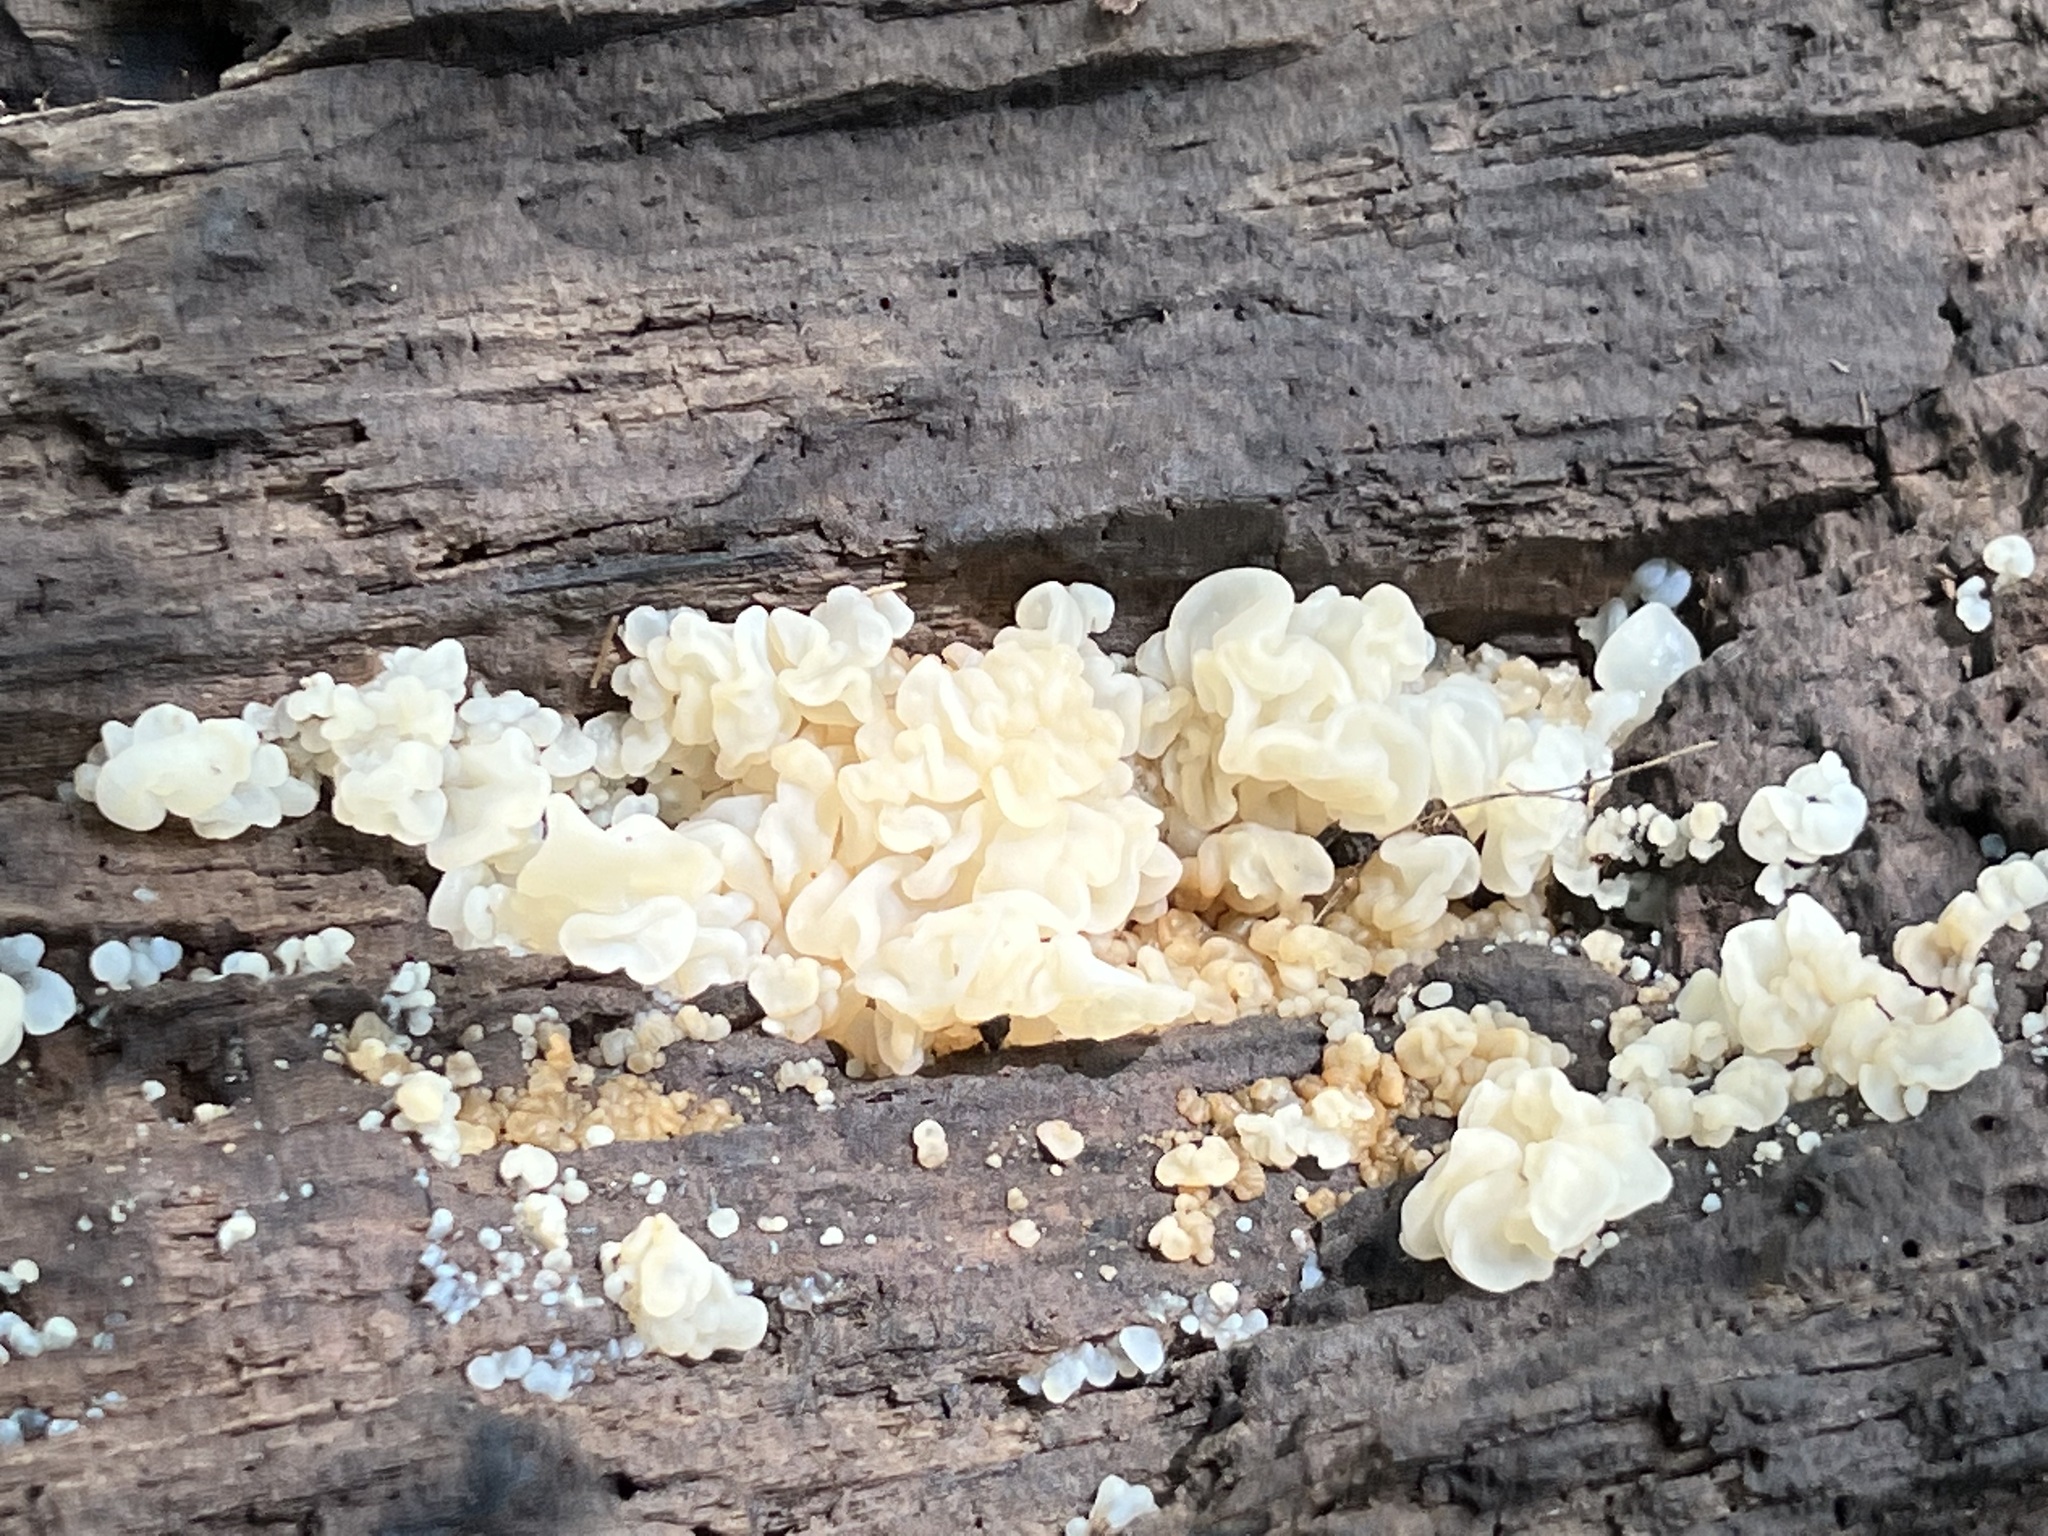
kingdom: Fungi
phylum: Basidiomycota
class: Agaricomycetes
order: Auriculariales
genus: Ductifera
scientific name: Ductifera pululahuana
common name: White jelly fungus
